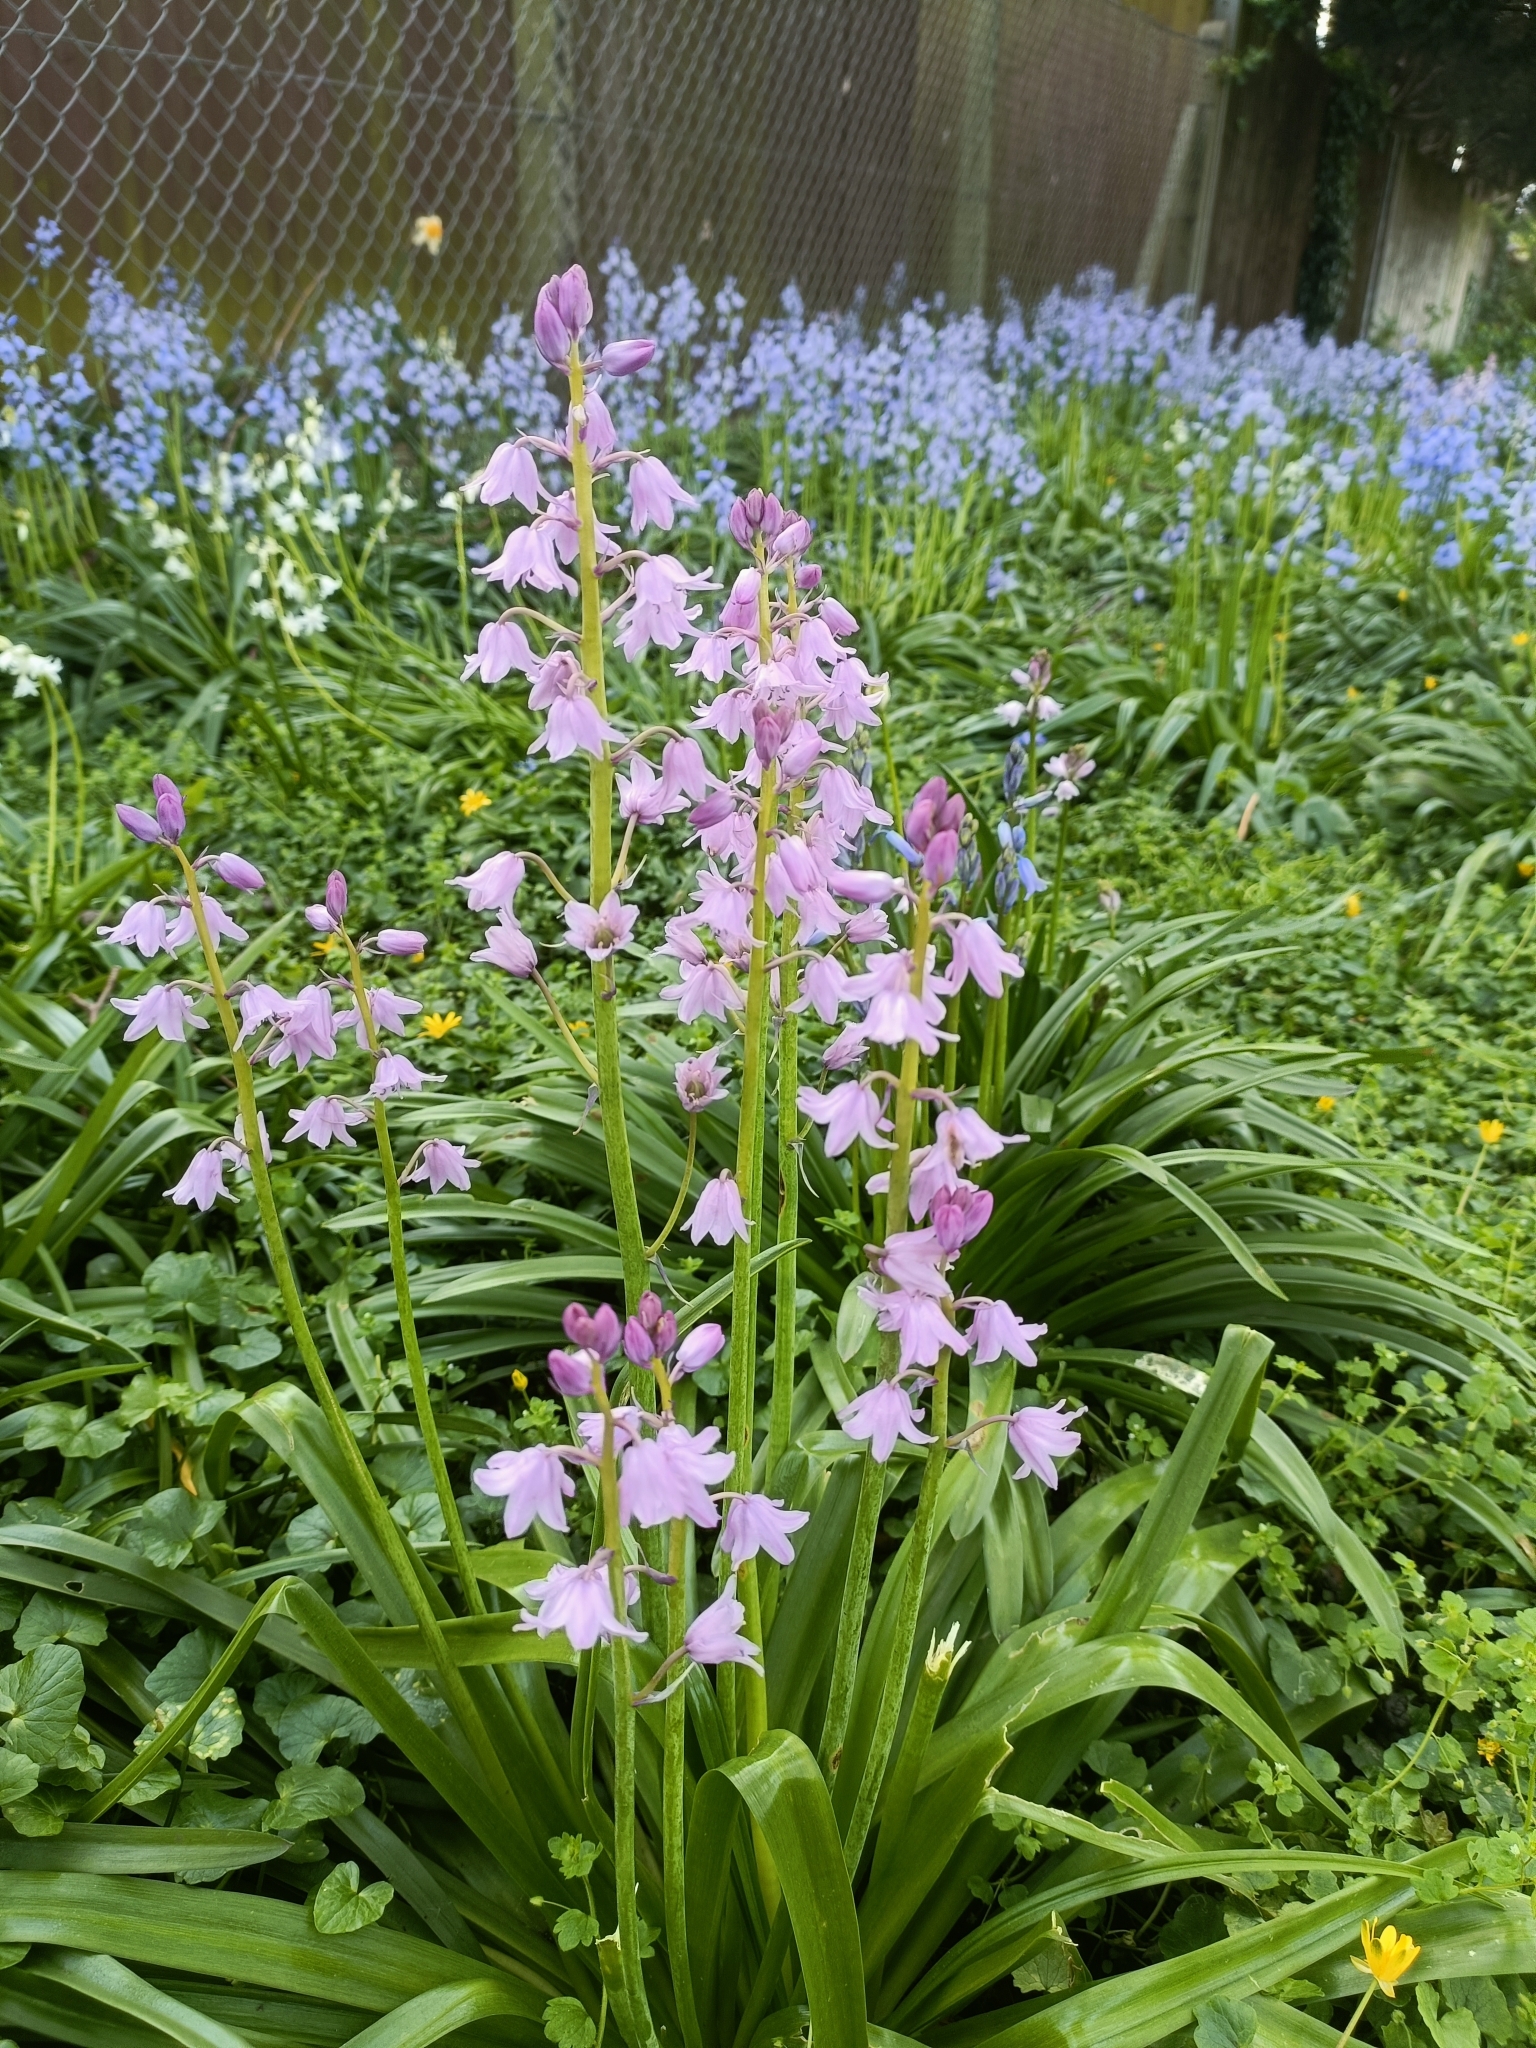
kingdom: Plantae
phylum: Tracheophyta
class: Liliopsida
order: Asparagales
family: Asparagaceae
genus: Hyacinthoides
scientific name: Hyacinthoides hispanica
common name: Spanish bluebell
